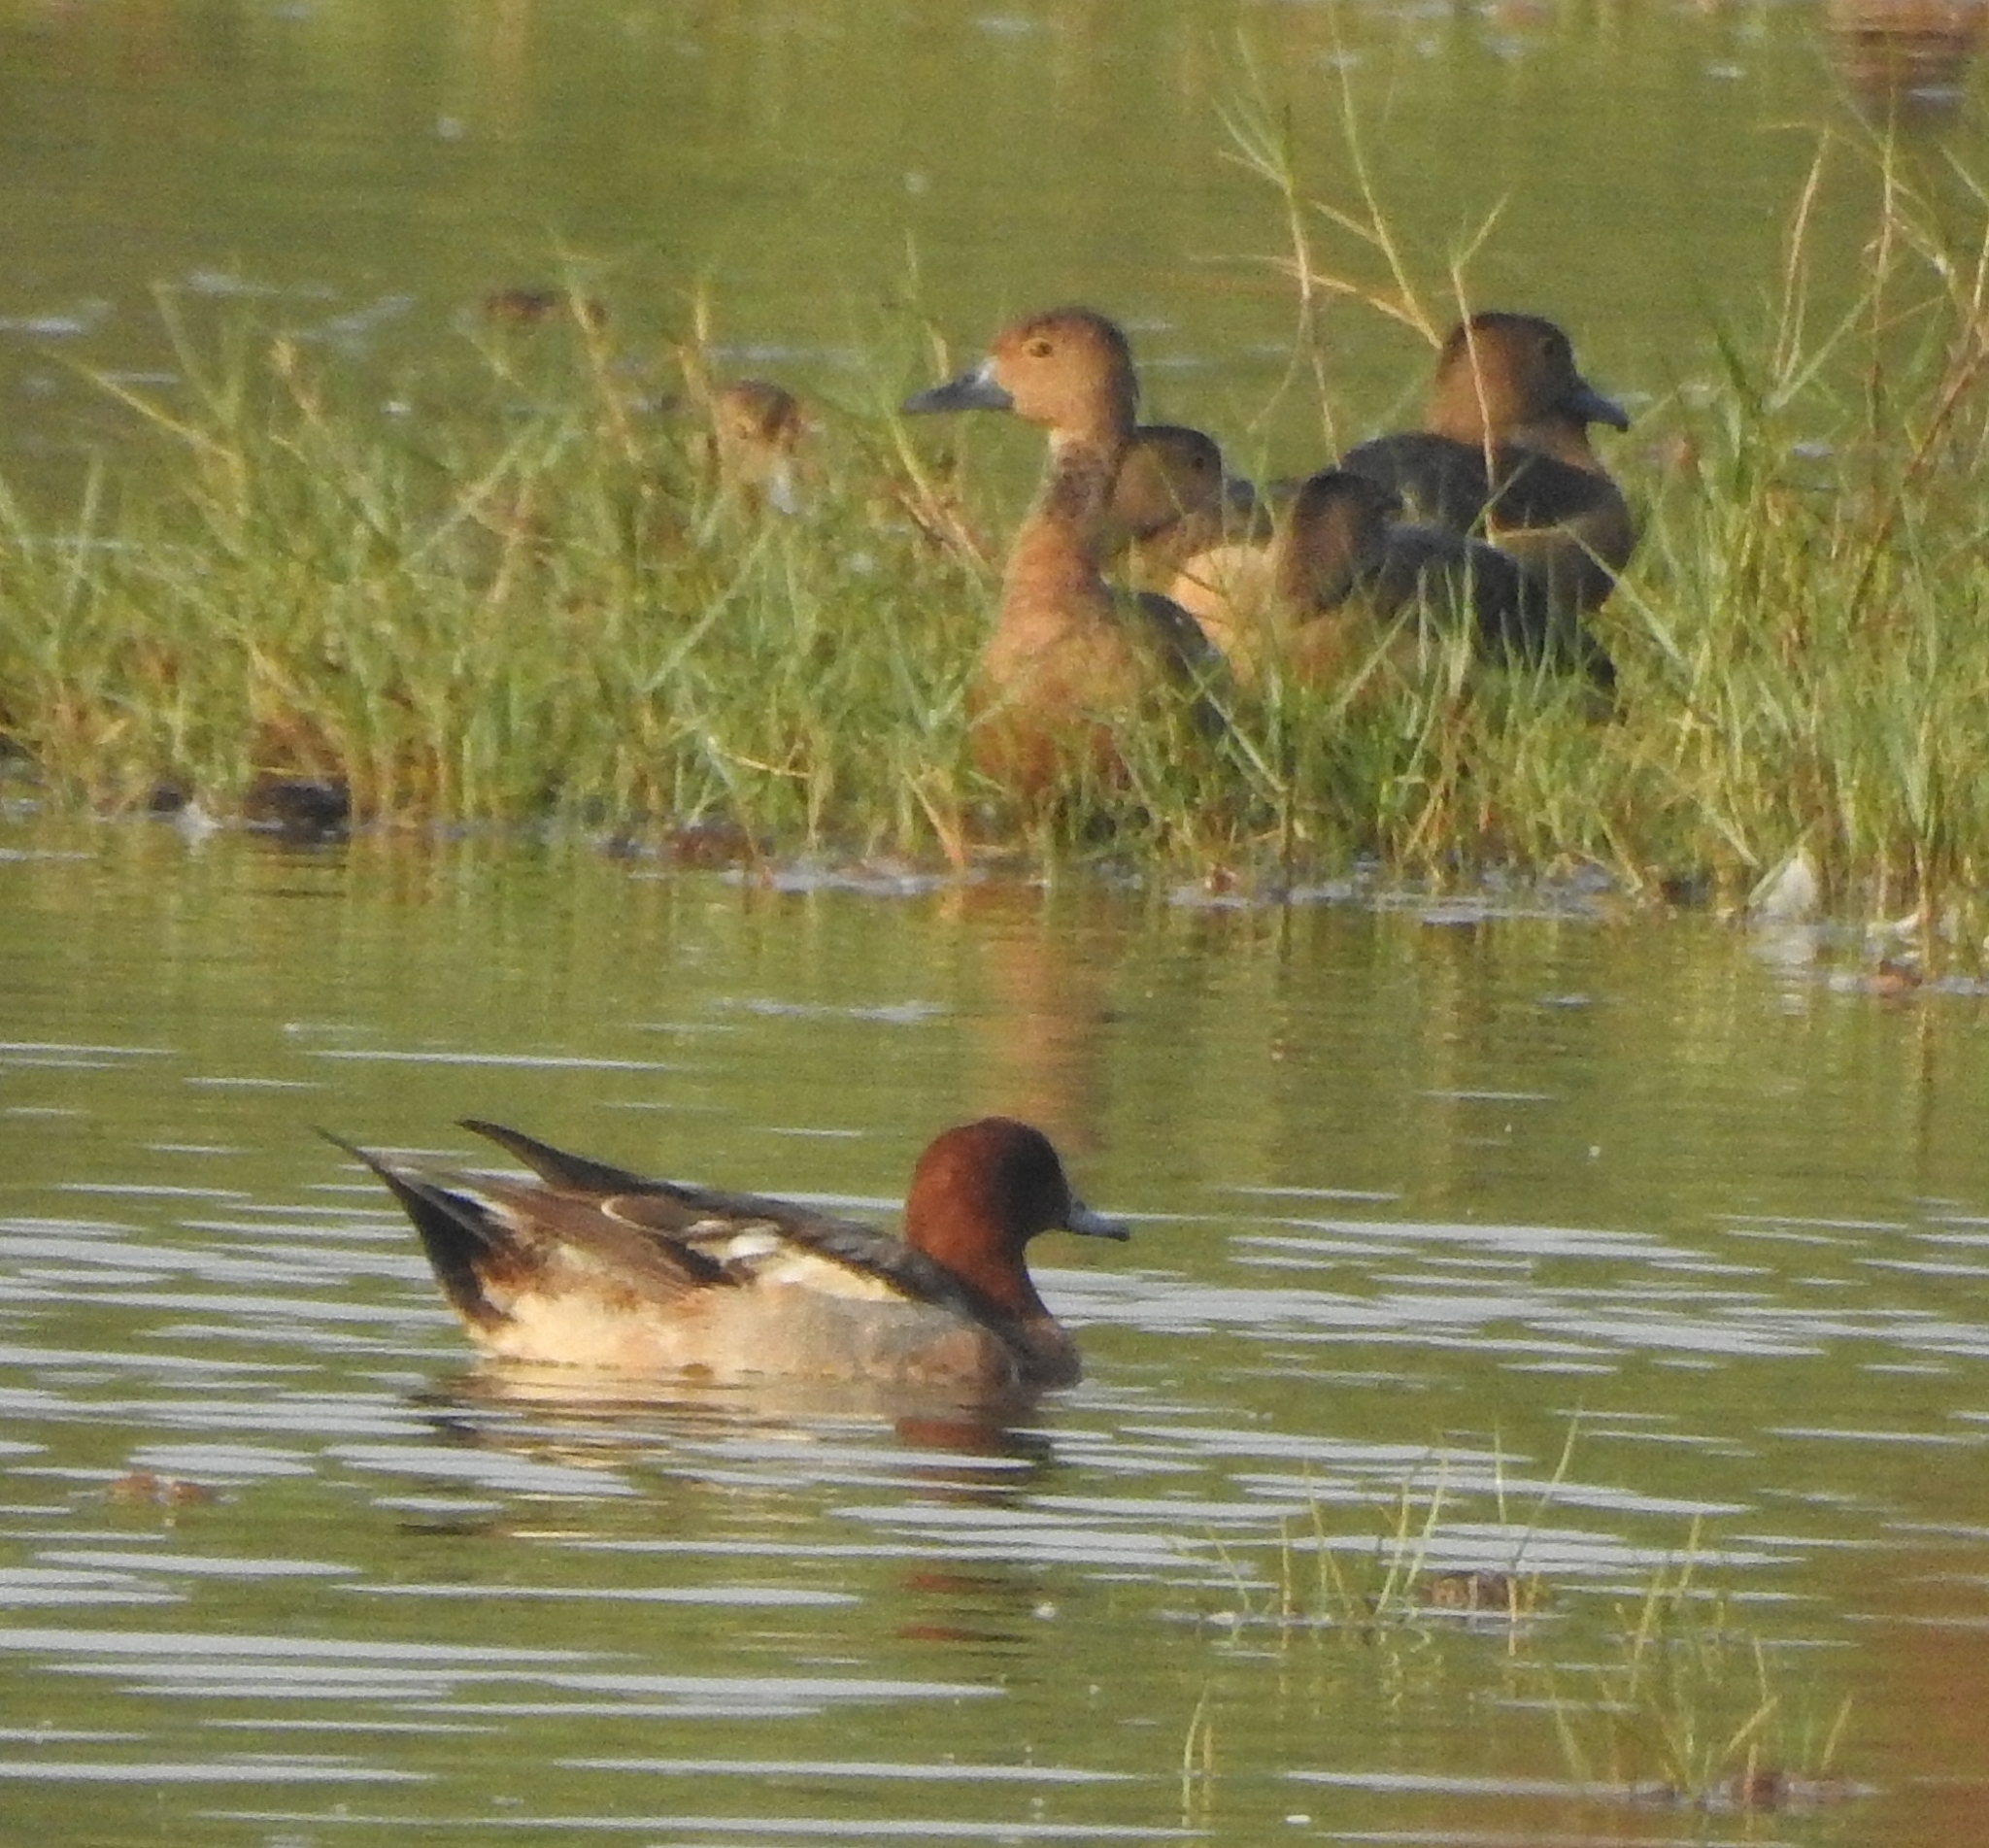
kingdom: Animalia
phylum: Chordata
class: Aves
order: Anseriformes
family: Anatidae
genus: Dendrocygna
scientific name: Dendrocygna javanica
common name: Lesser whistling-duck
